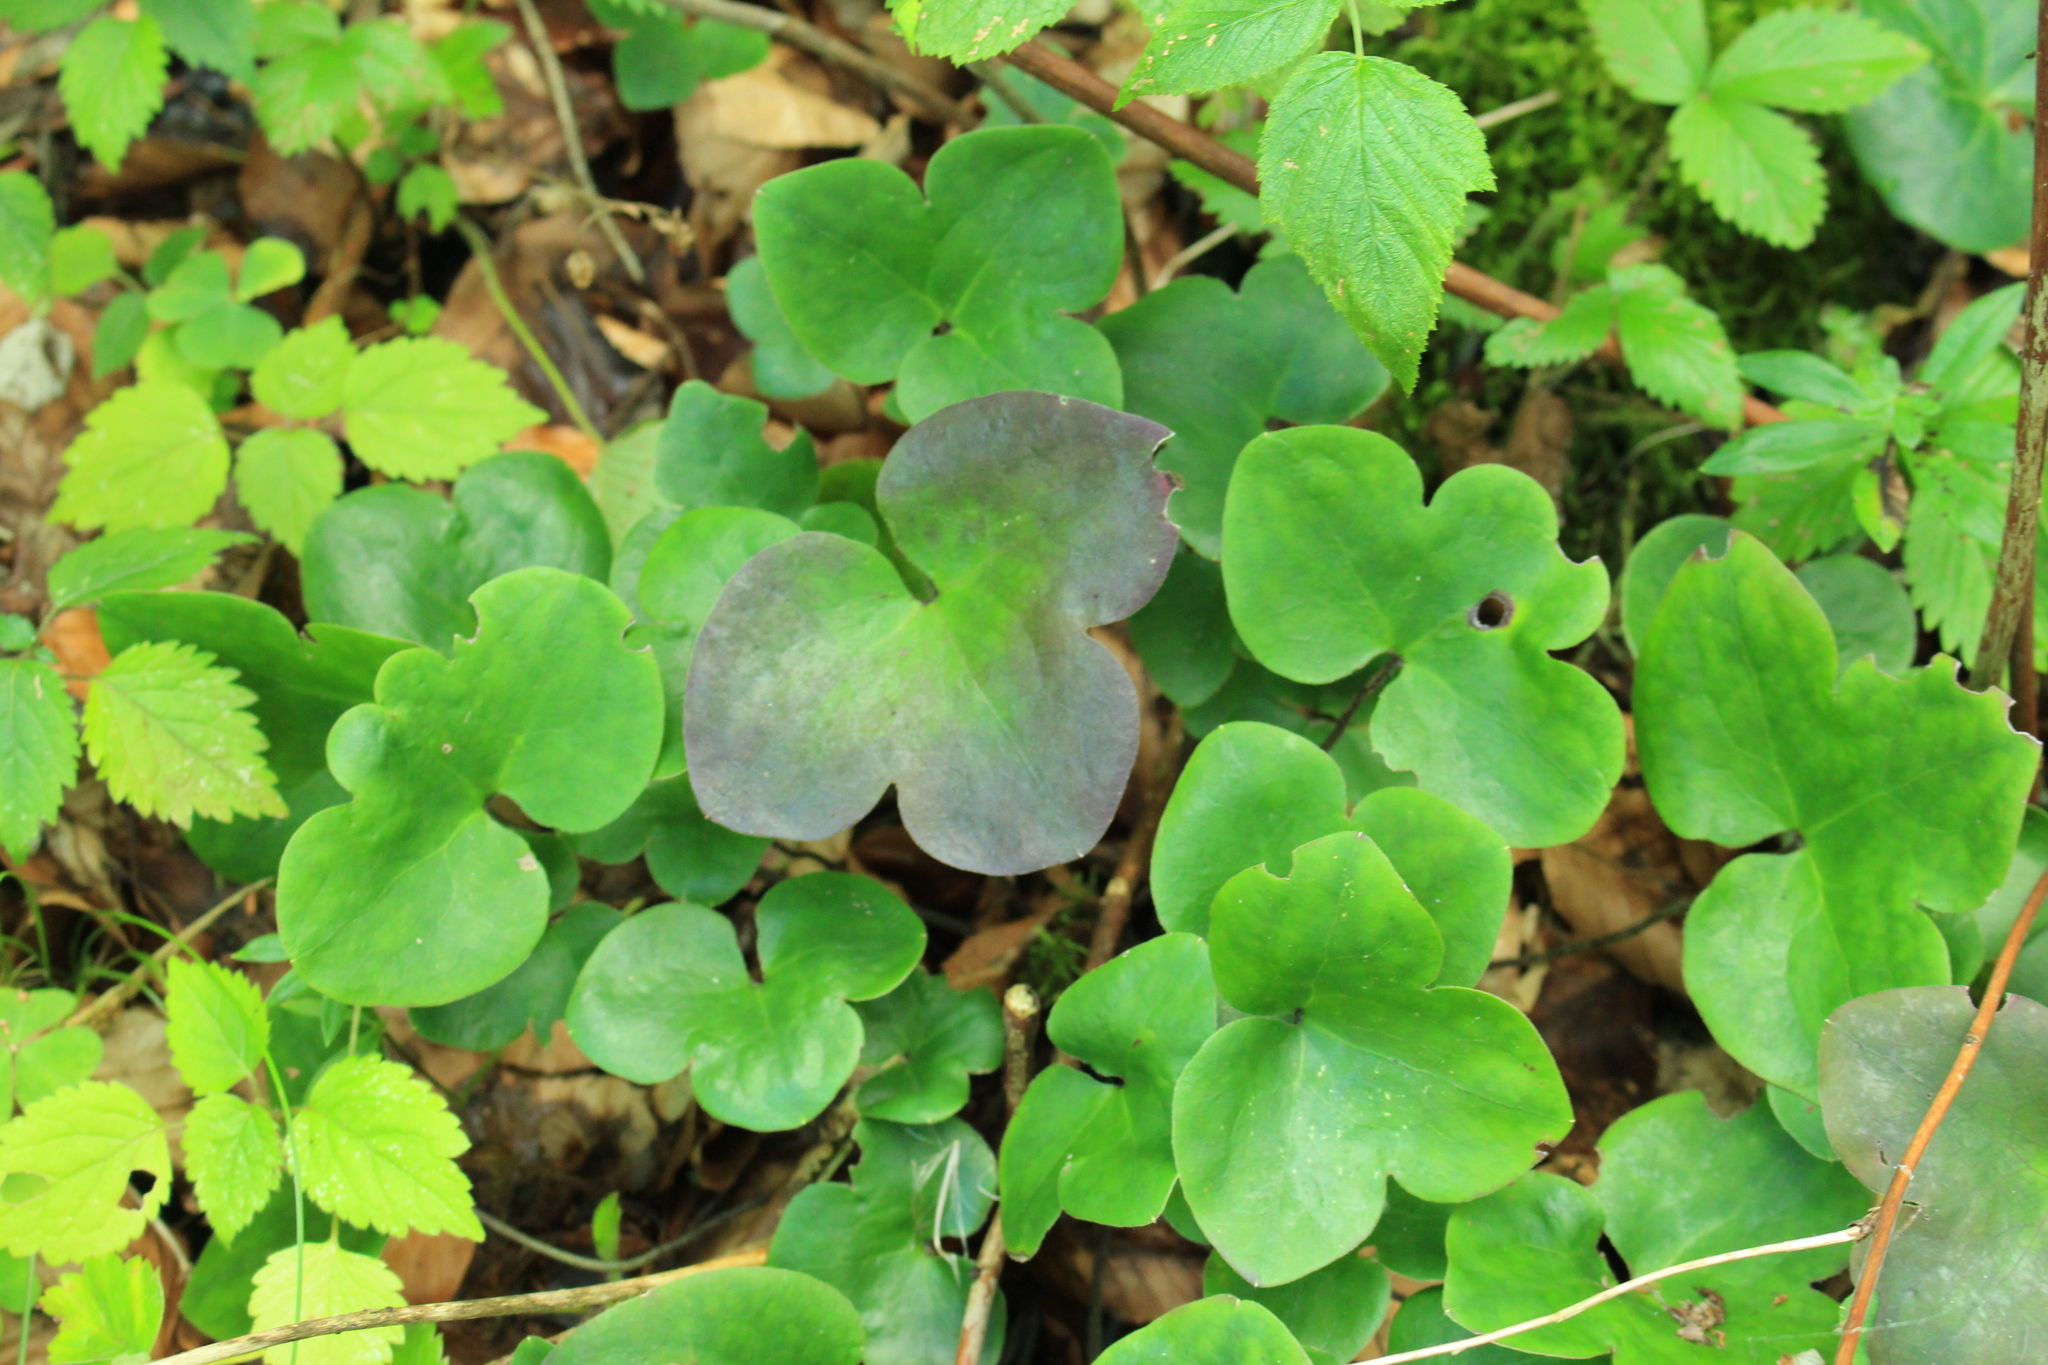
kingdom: Plantae
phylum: Tracheophyta
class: Magnoliopsida
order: Ranunculales
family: Ranunculaceae
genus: Hepatica
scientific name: Hepatica nobilis
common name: Liverleaf
